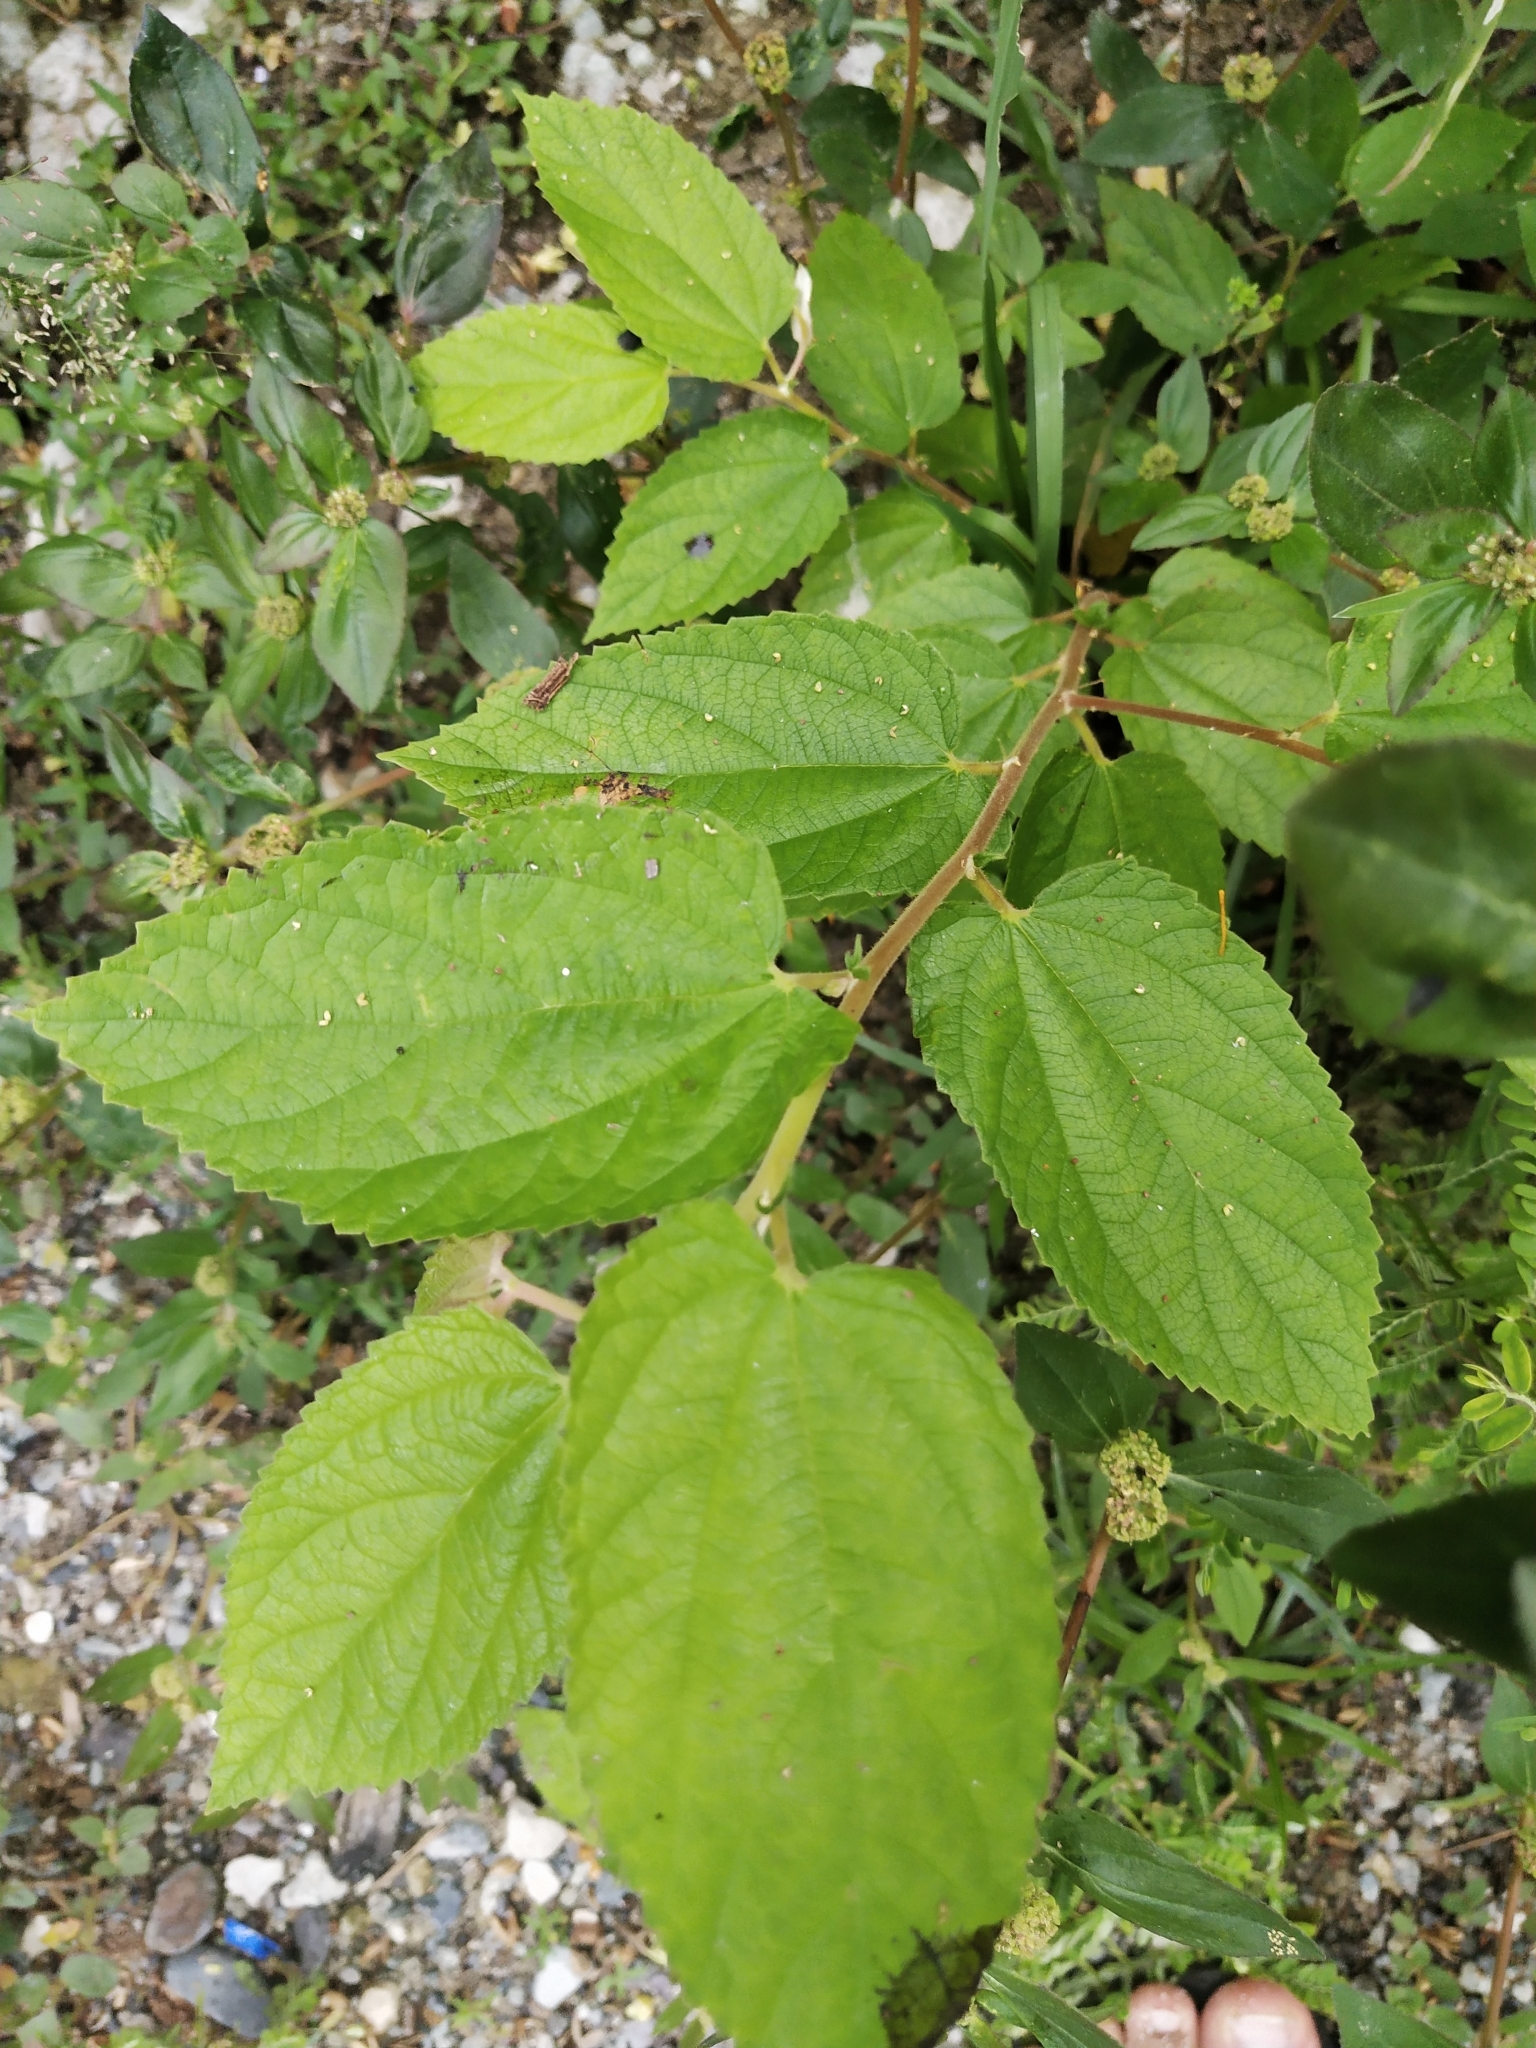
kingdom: Plantae
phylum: Tracheophyta
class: Magnoliopsida
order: Malvales
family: Muntingiaceae
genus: Muntingia
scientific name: Muntingia calabura
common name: Strawberrytree
